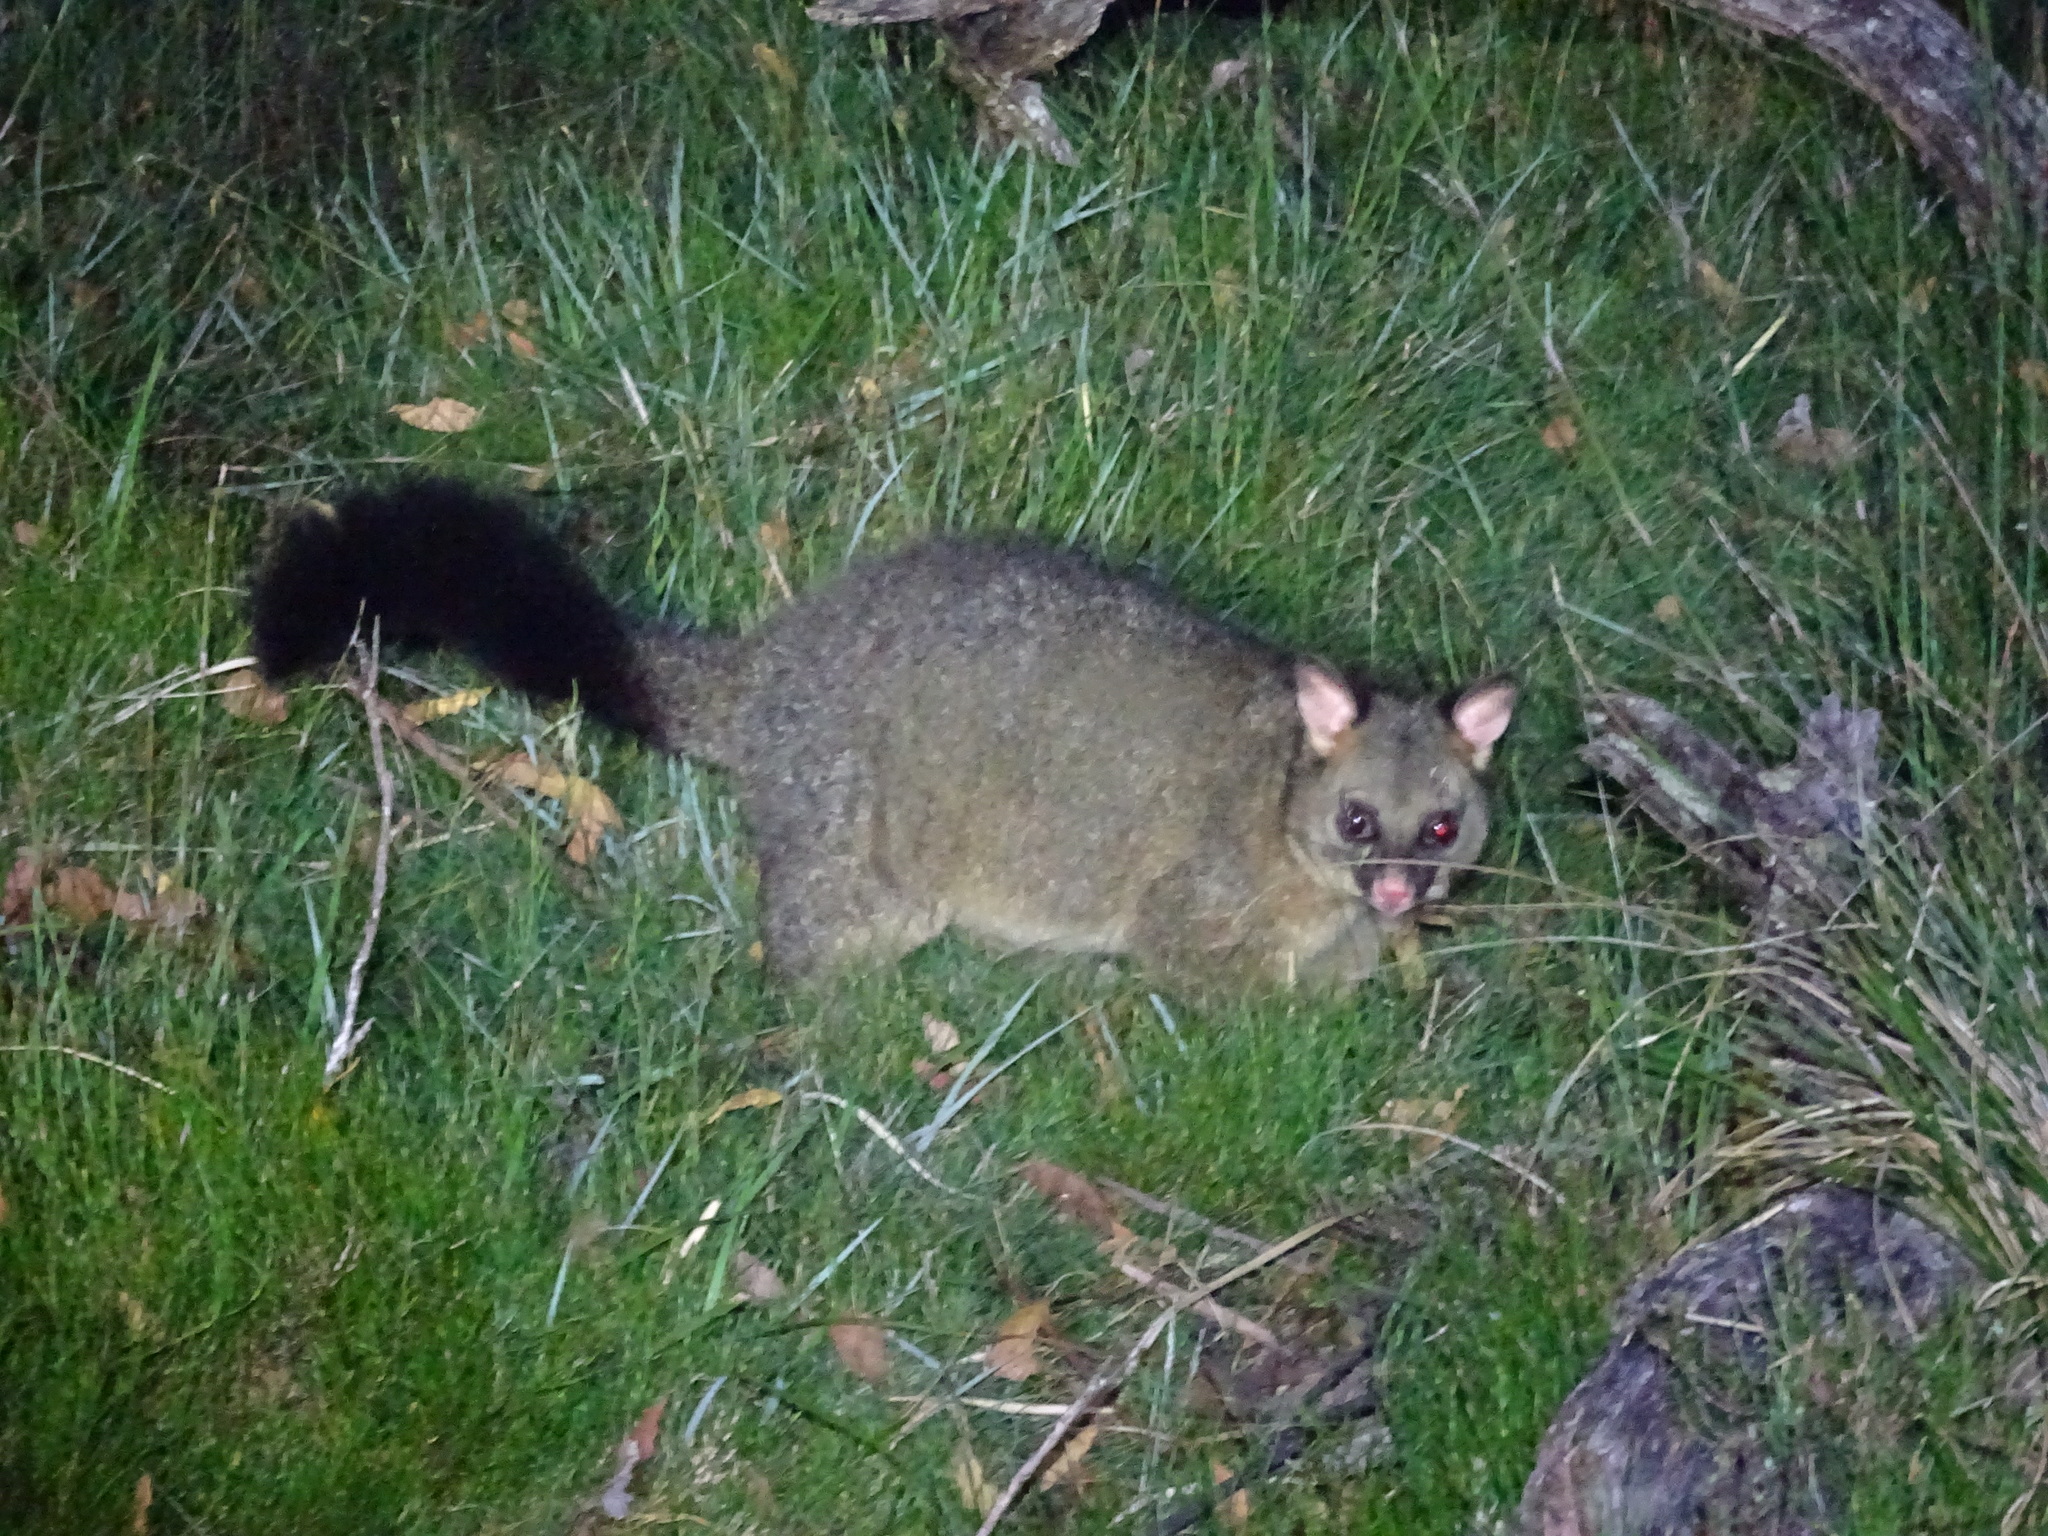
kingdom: Animalia
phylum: Chordata
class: Mammalia
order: Diprotodontia
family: Phalangeridae
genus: Trichosurus
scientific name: Trichosurus vulpecula
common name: Common brushtail
